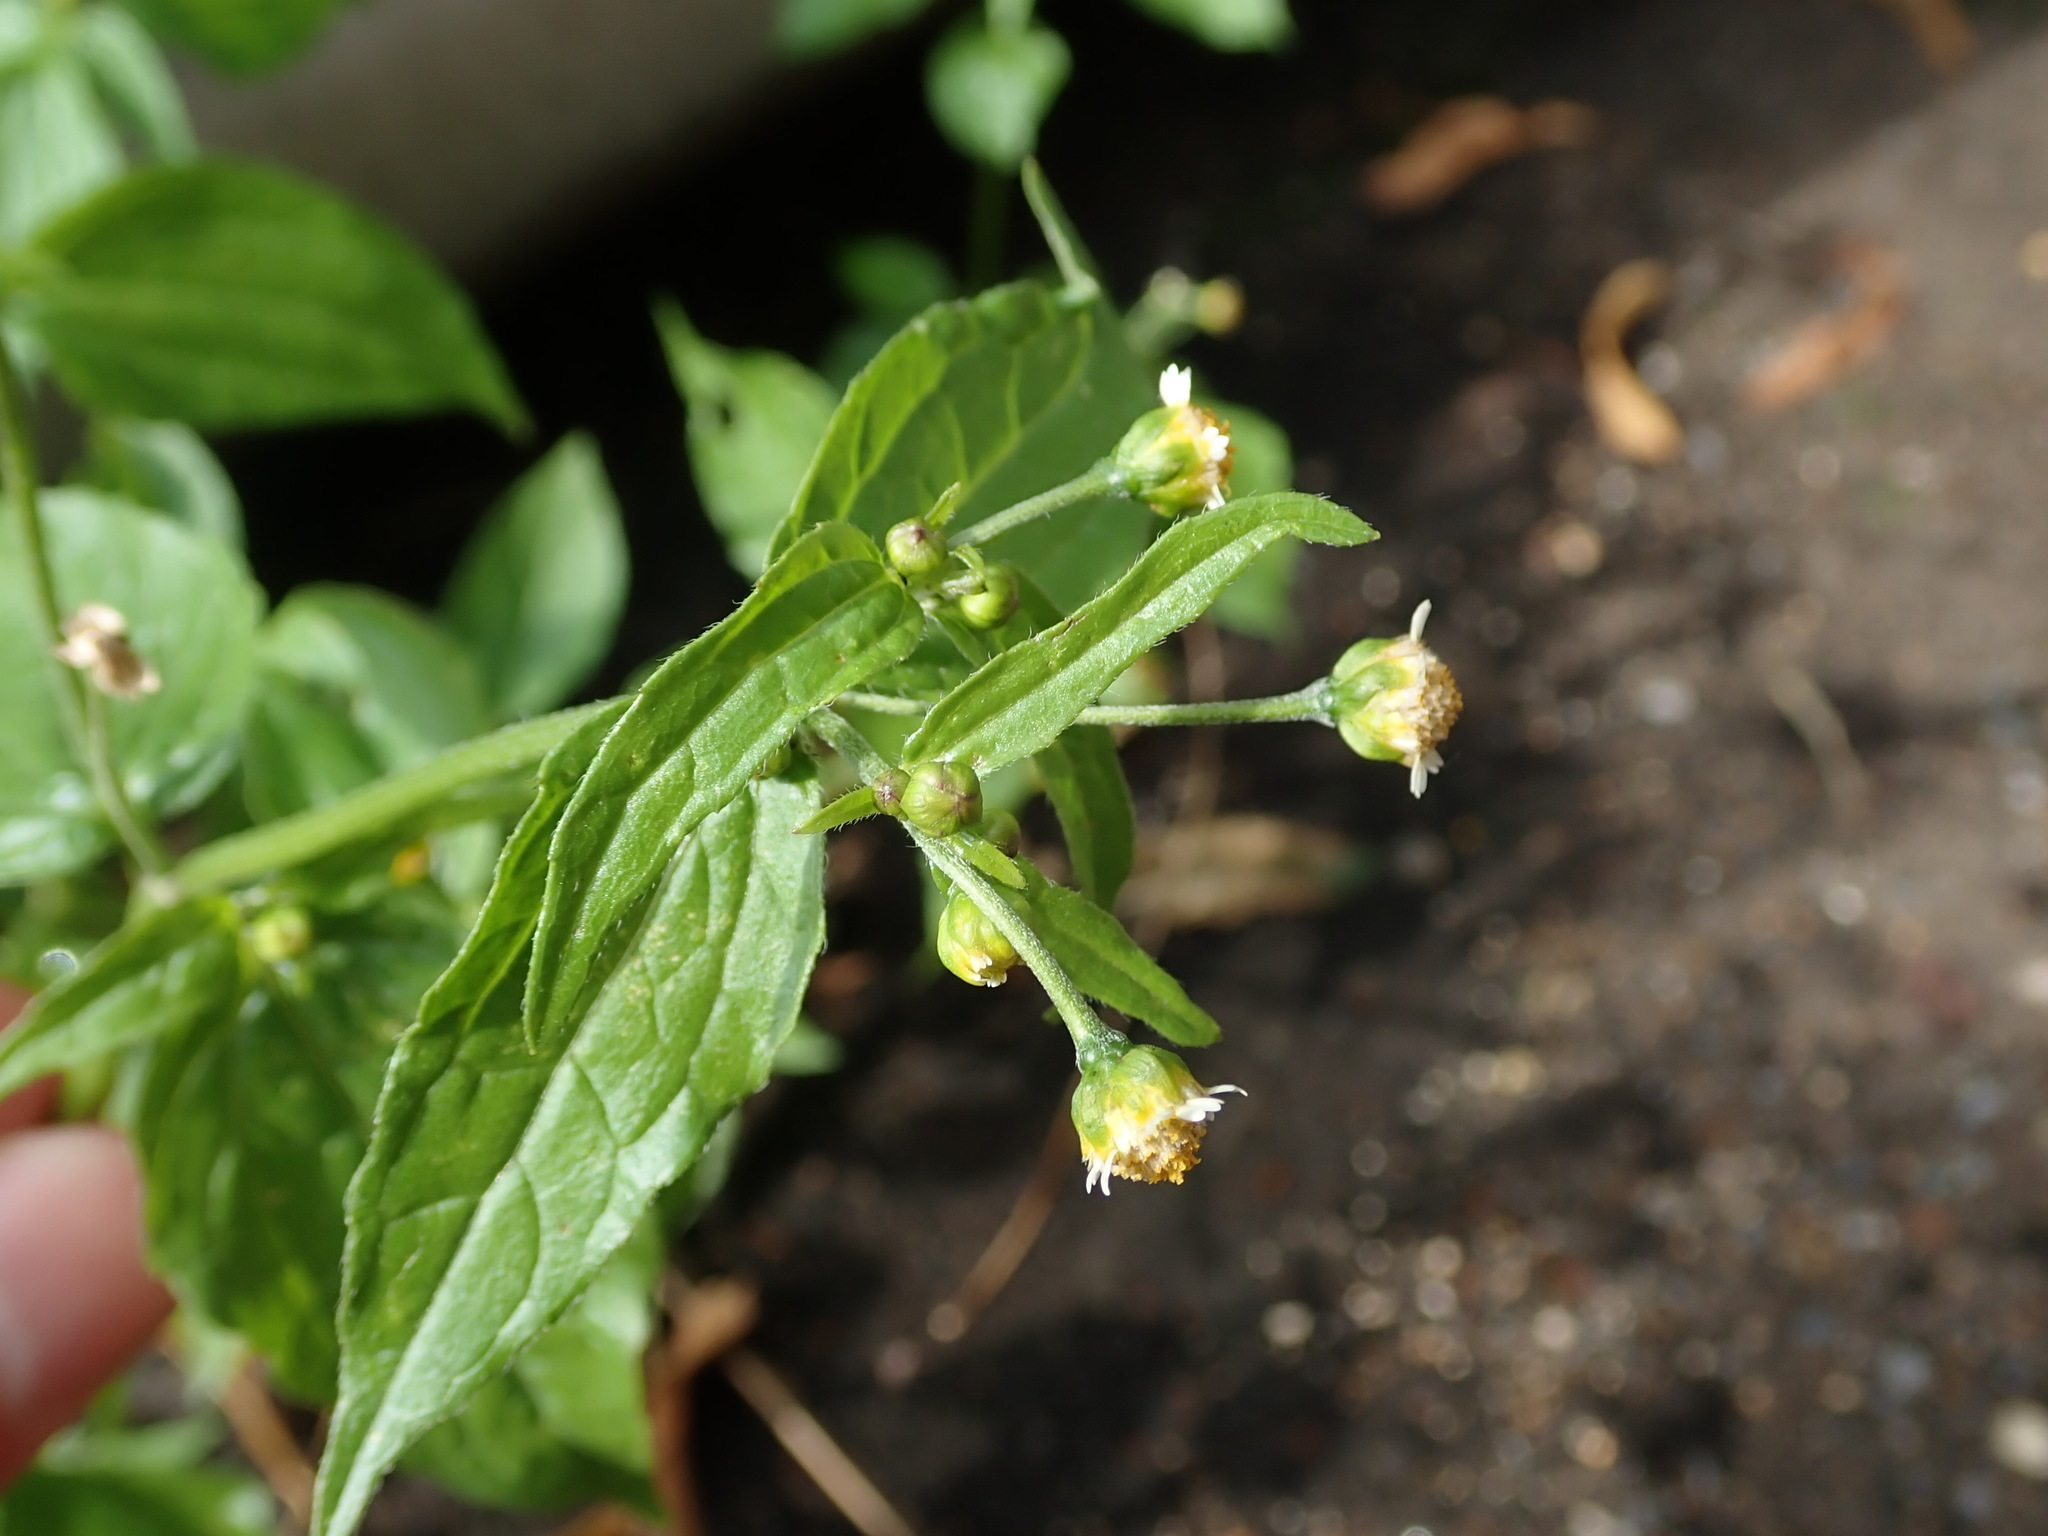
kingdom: Plantae
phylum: Tracheophyta
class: Magnoliopsida
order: Asterales
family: Asteraceae
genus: Galinsoga
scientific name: Galinsoga parviflora
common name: Gallant soldier
